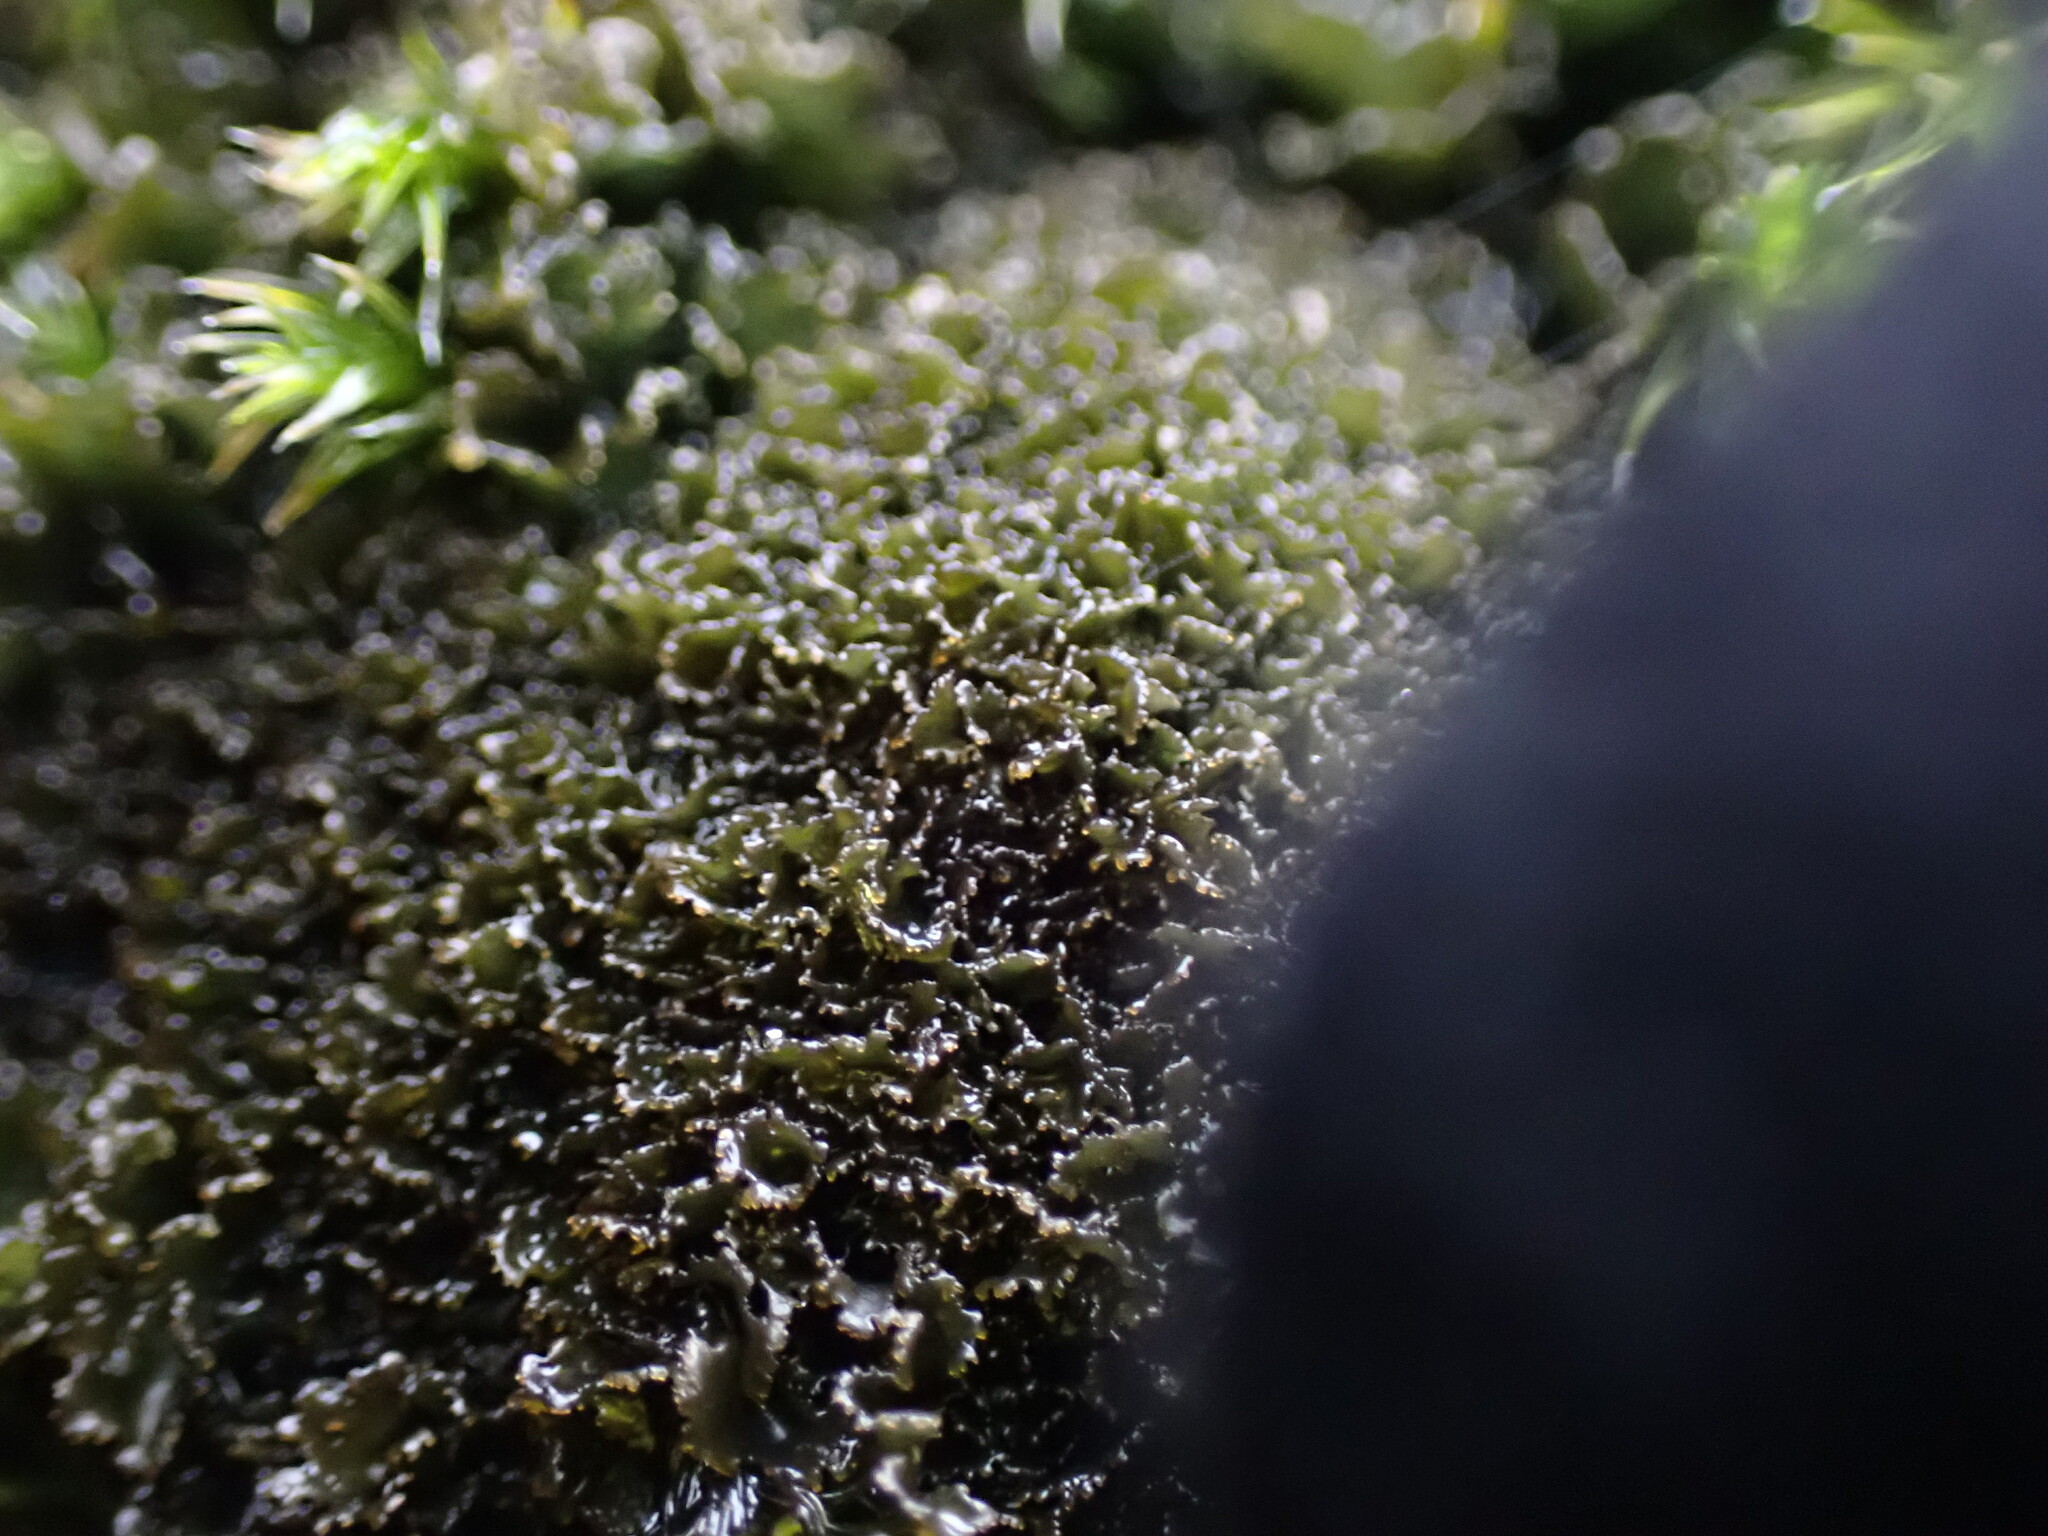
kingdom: Fungi
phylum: Ascomycota
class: Lecanoromycetes
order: Peltigerales
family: Collemataceae
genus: Scytinium
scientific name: Scytinium lichenoides
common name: Tattered jellyskin lichen
